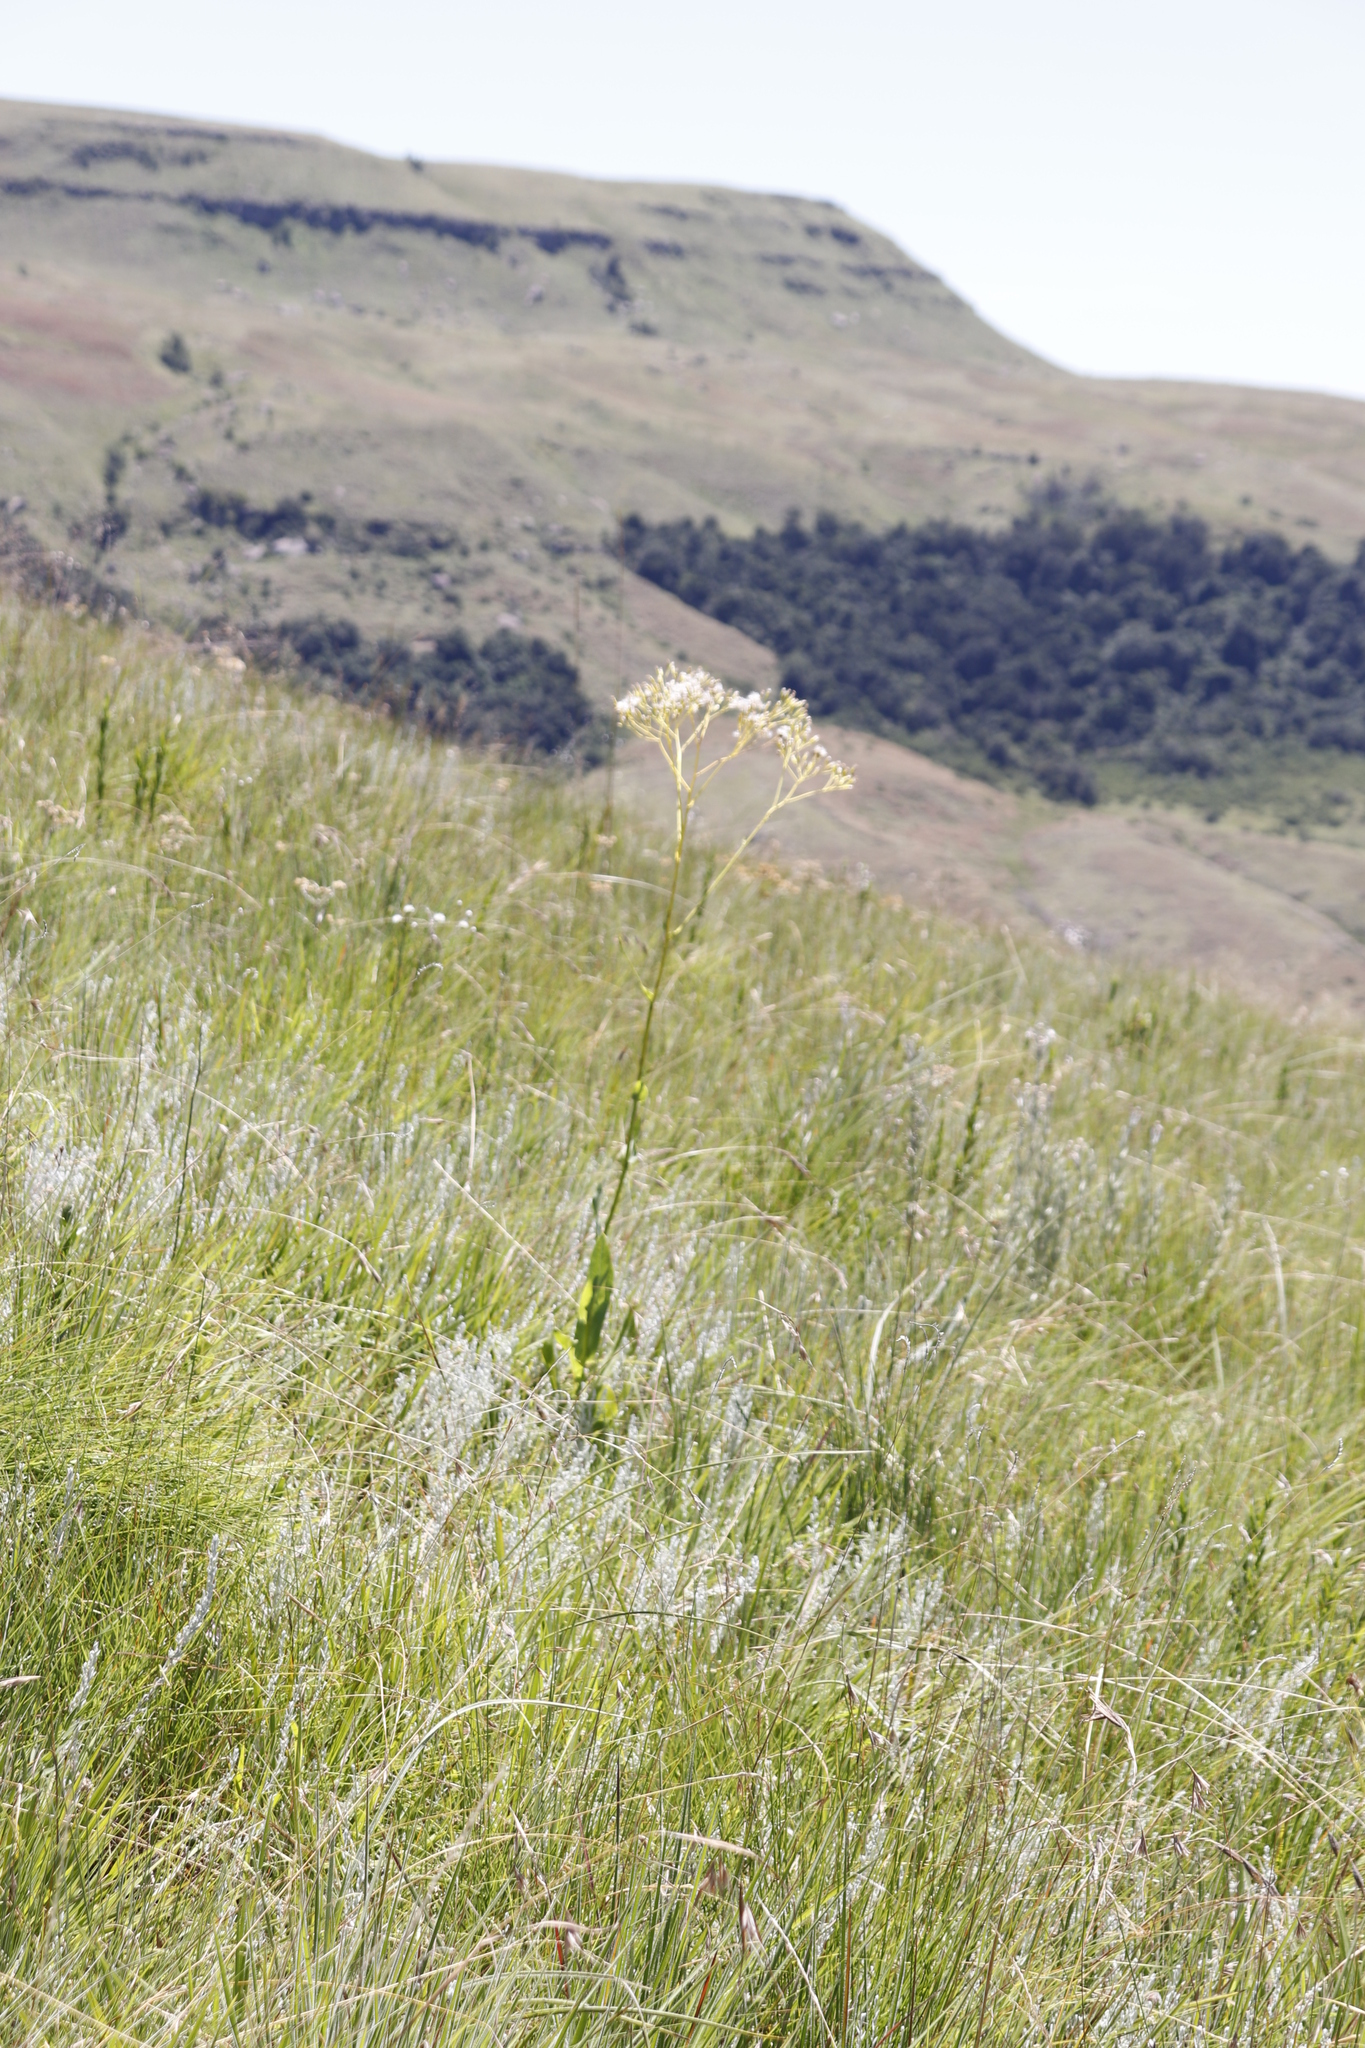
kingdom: Plantae
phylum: Tracheophyta
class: Magnoliopsida
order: Asterales
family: Asteraceae
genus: Senecio
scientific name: Senecio isatideus
